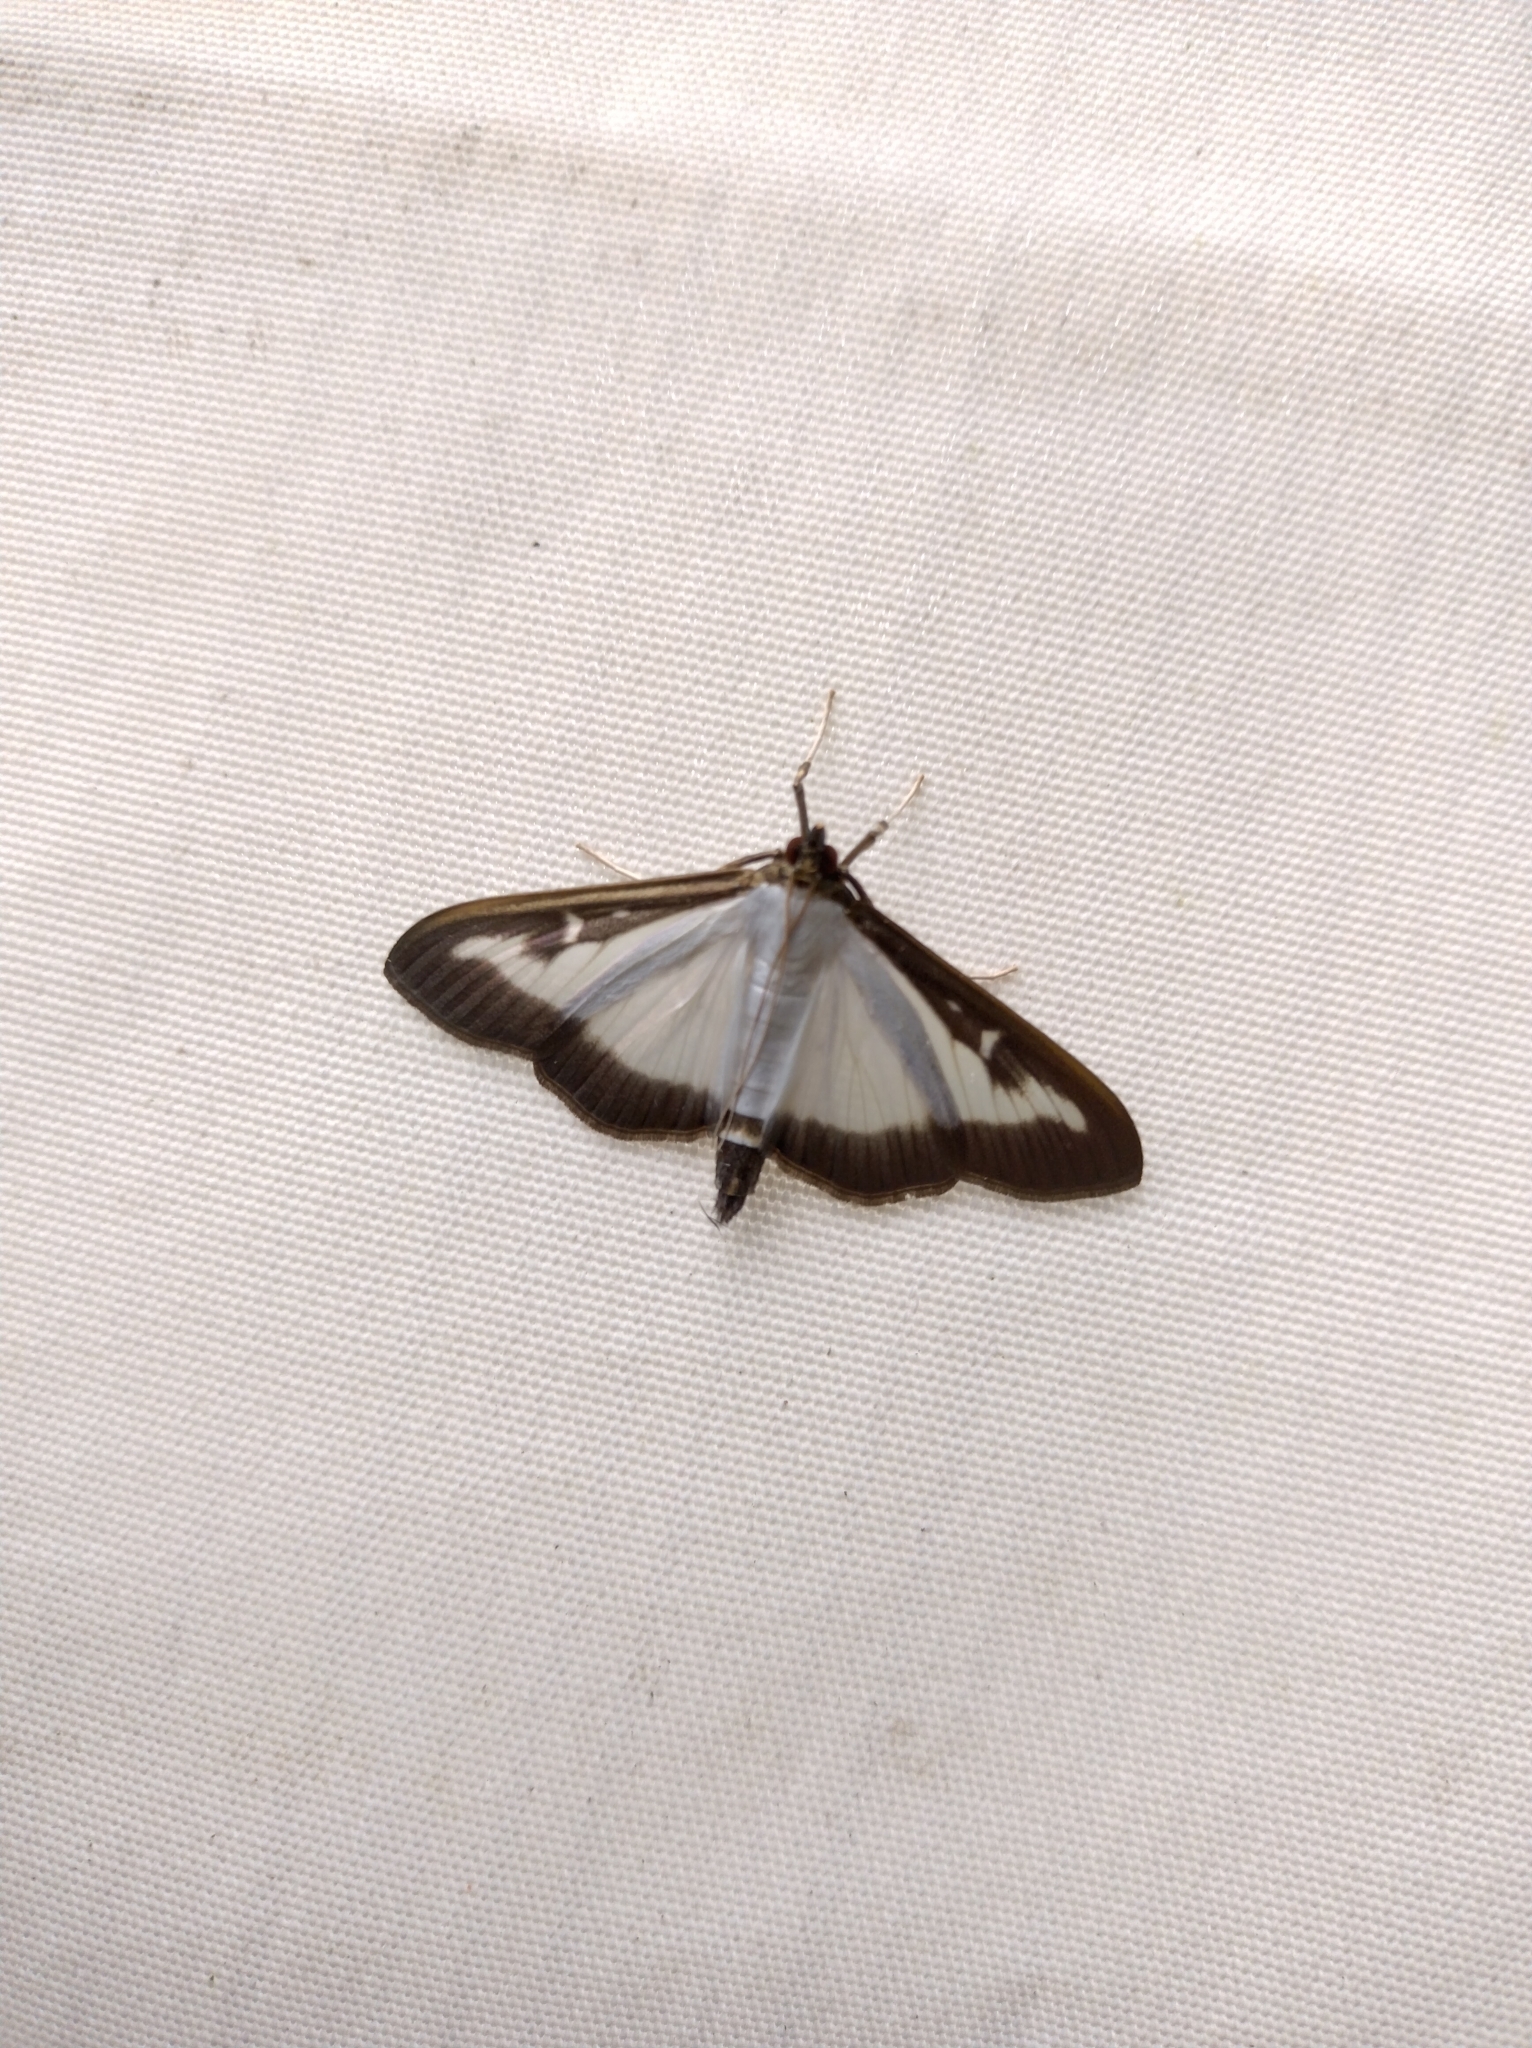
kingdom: Animalia
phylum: Arthropoda
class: Insecta
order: Lepidoptera
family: Crambidae
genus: Cydalima
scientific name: Cydalima perspectalis
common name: Box tree moth
